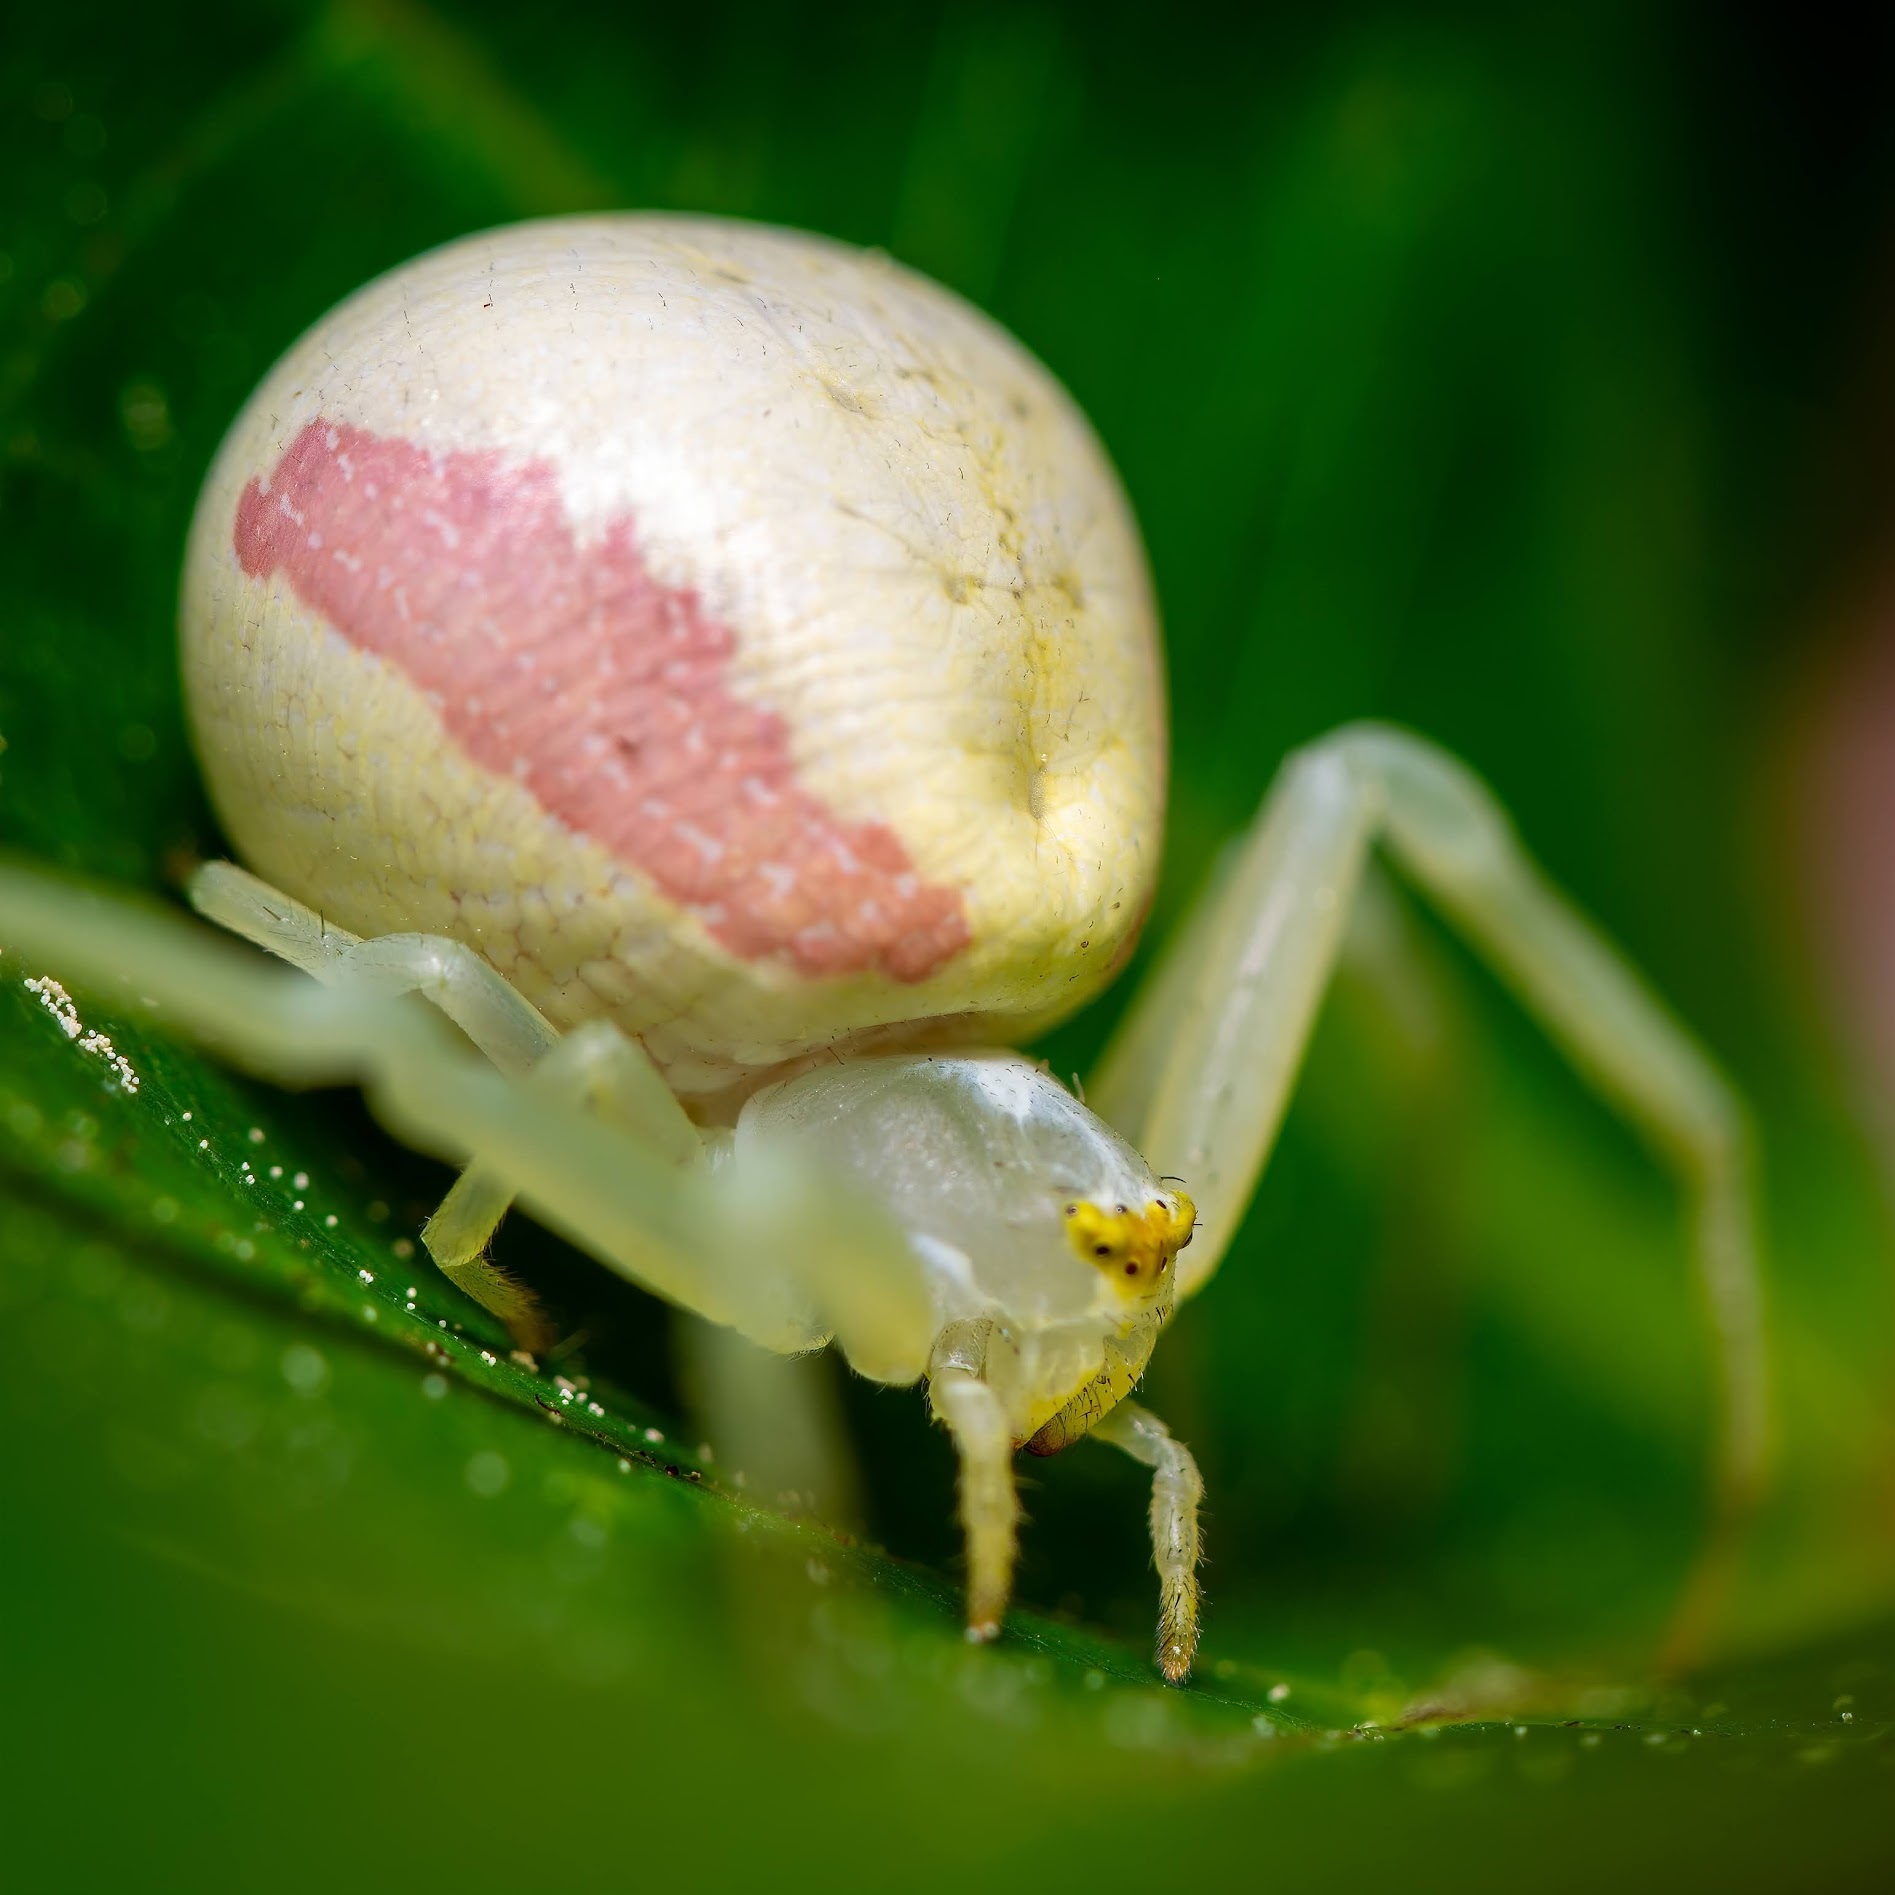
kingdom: Animalia
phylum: Arthropoda
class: Arachnida
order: Araneae
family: Thomisidae
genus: Misumena
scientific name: Misumena vatia
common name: Goldenrod crab spider
